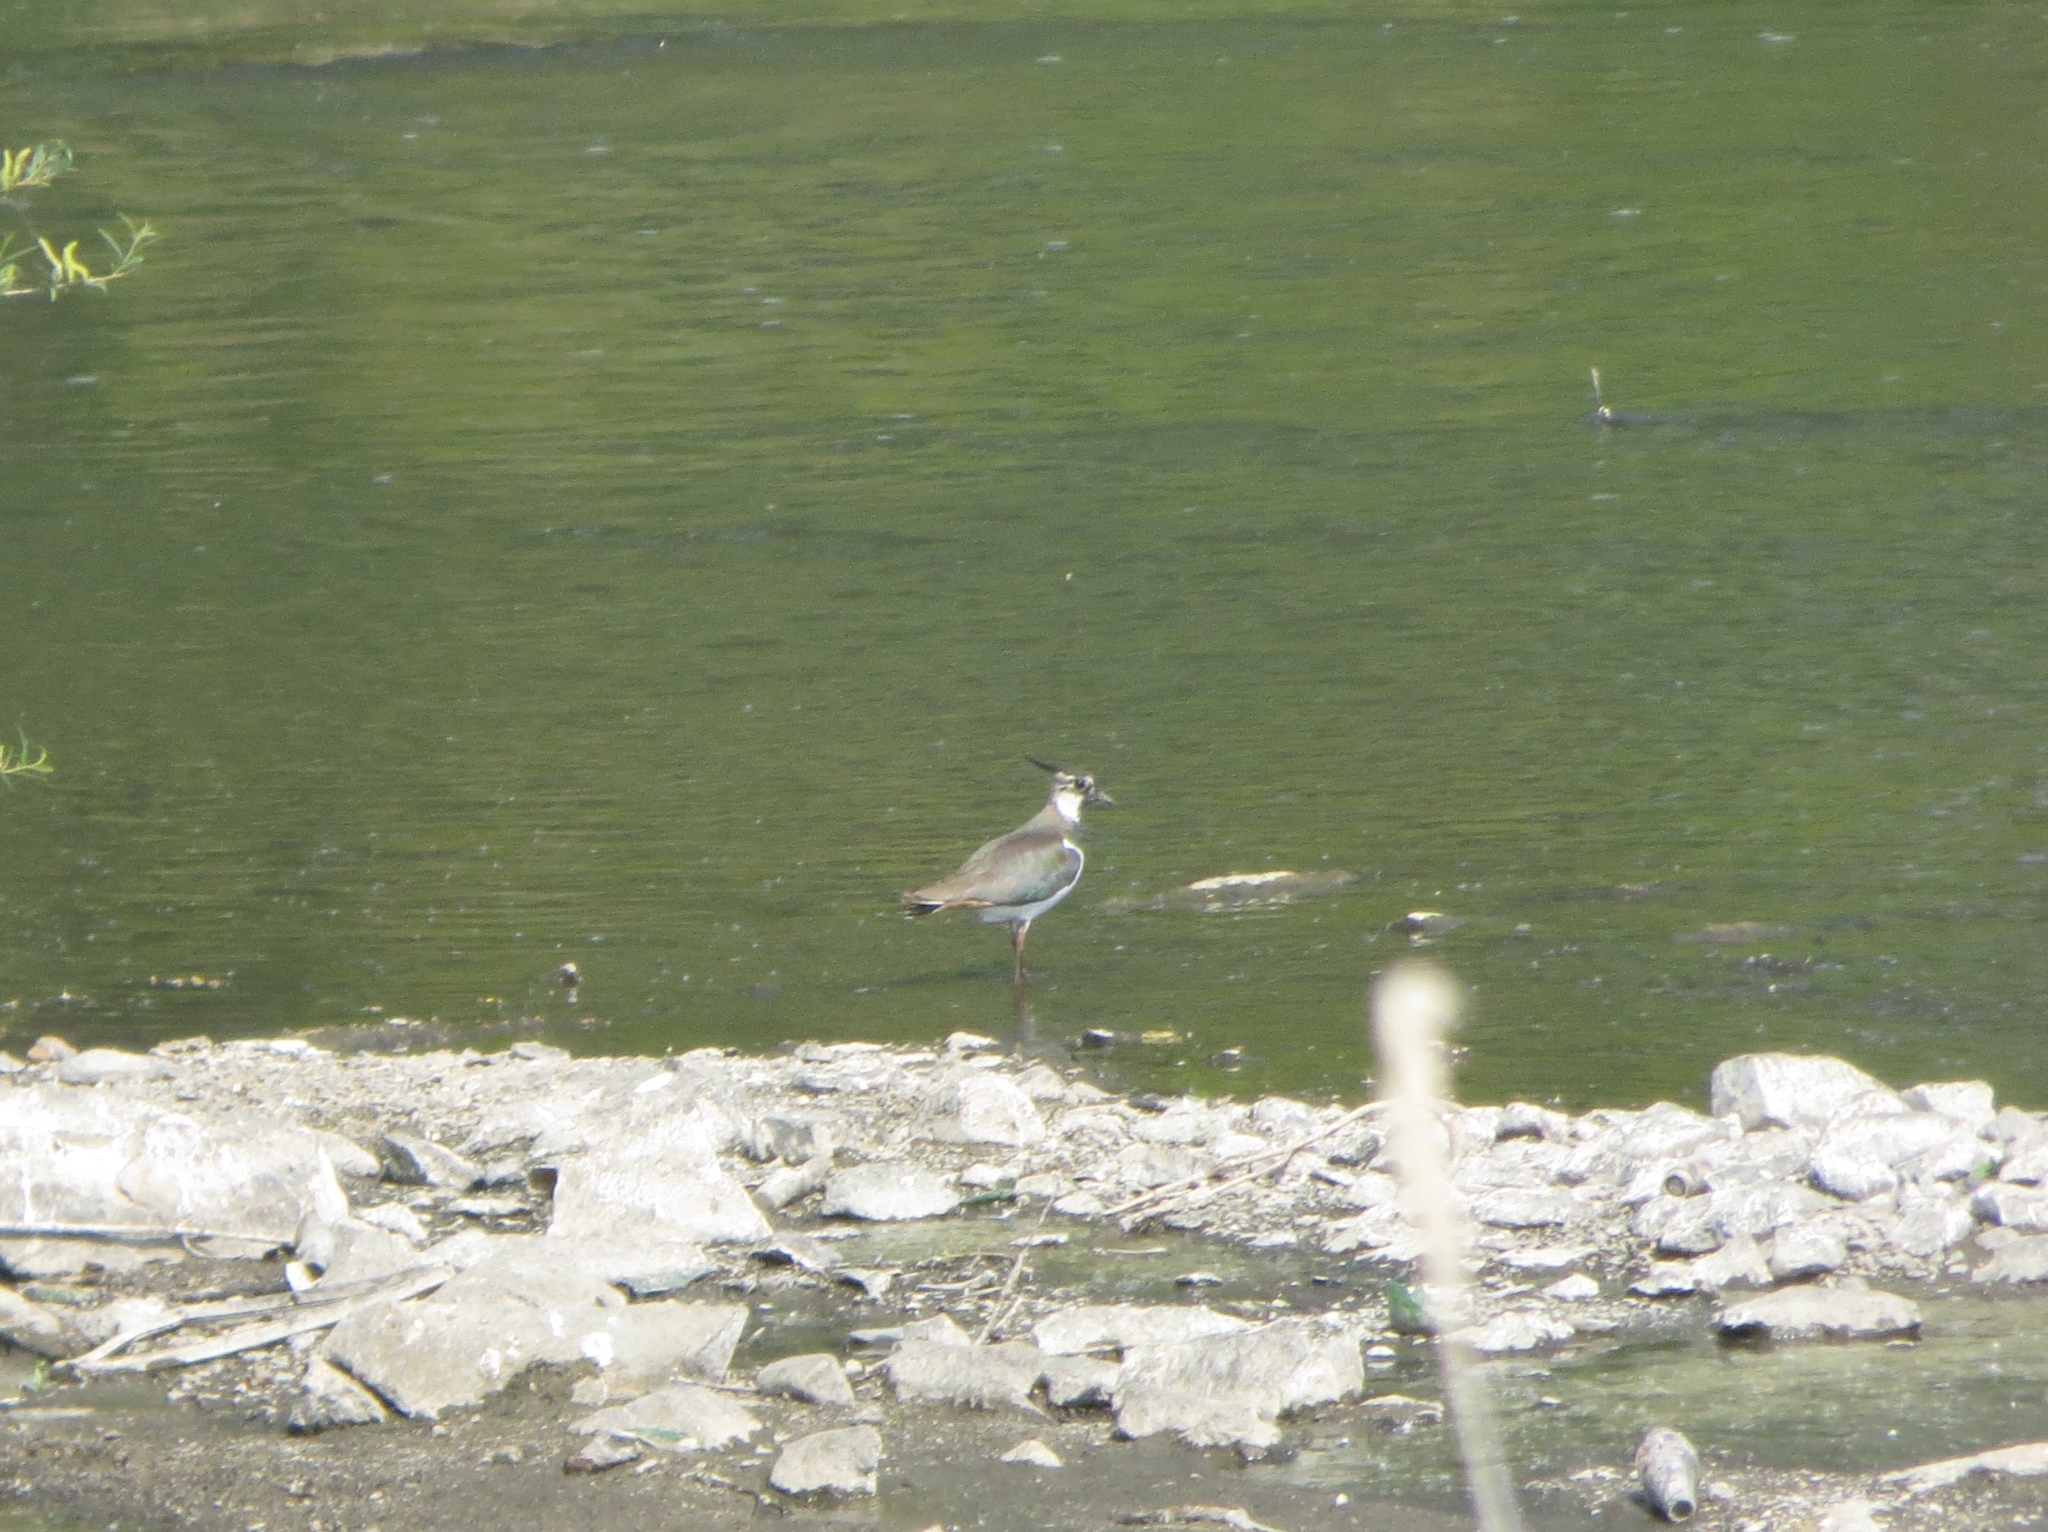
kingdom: Animalia
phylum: Chordata
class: Aves
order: Charadriiformes
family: Charadriidae
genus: Vanellus
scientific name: Vanellus vanellus
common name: Northern lapwing
